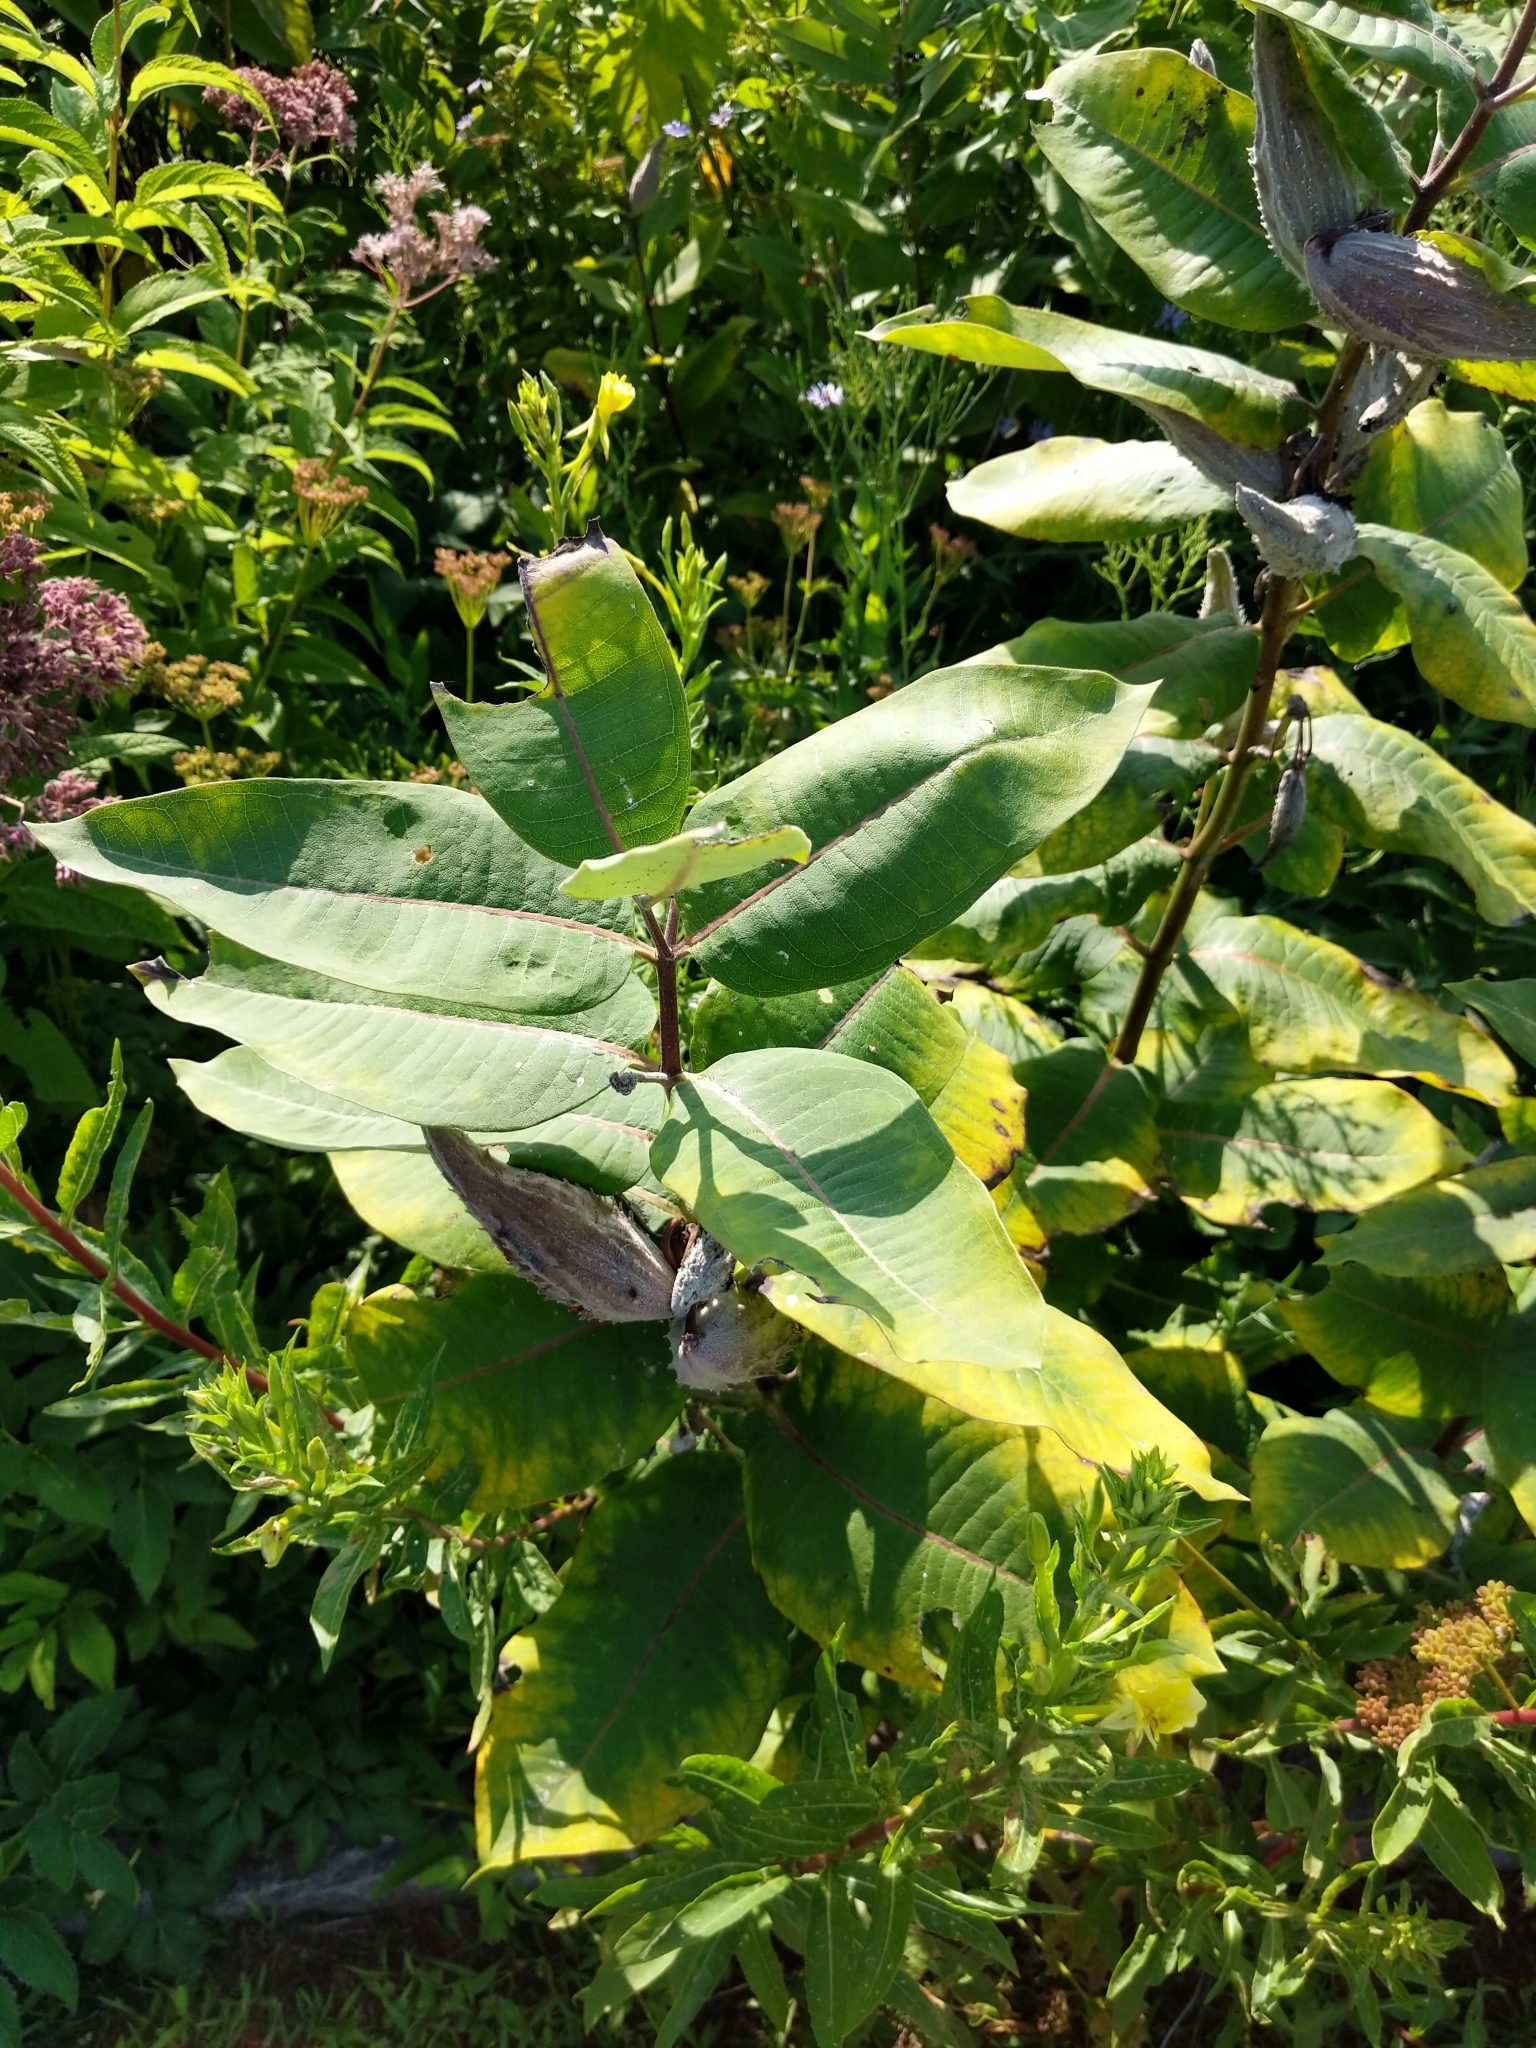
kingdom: Plantae
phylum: Tracheophyta
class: Magnoliopsida
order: Gentianales
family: Apocynaceae
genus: Asclepias
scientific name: Asclepias syriaca
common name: Common milkweed
